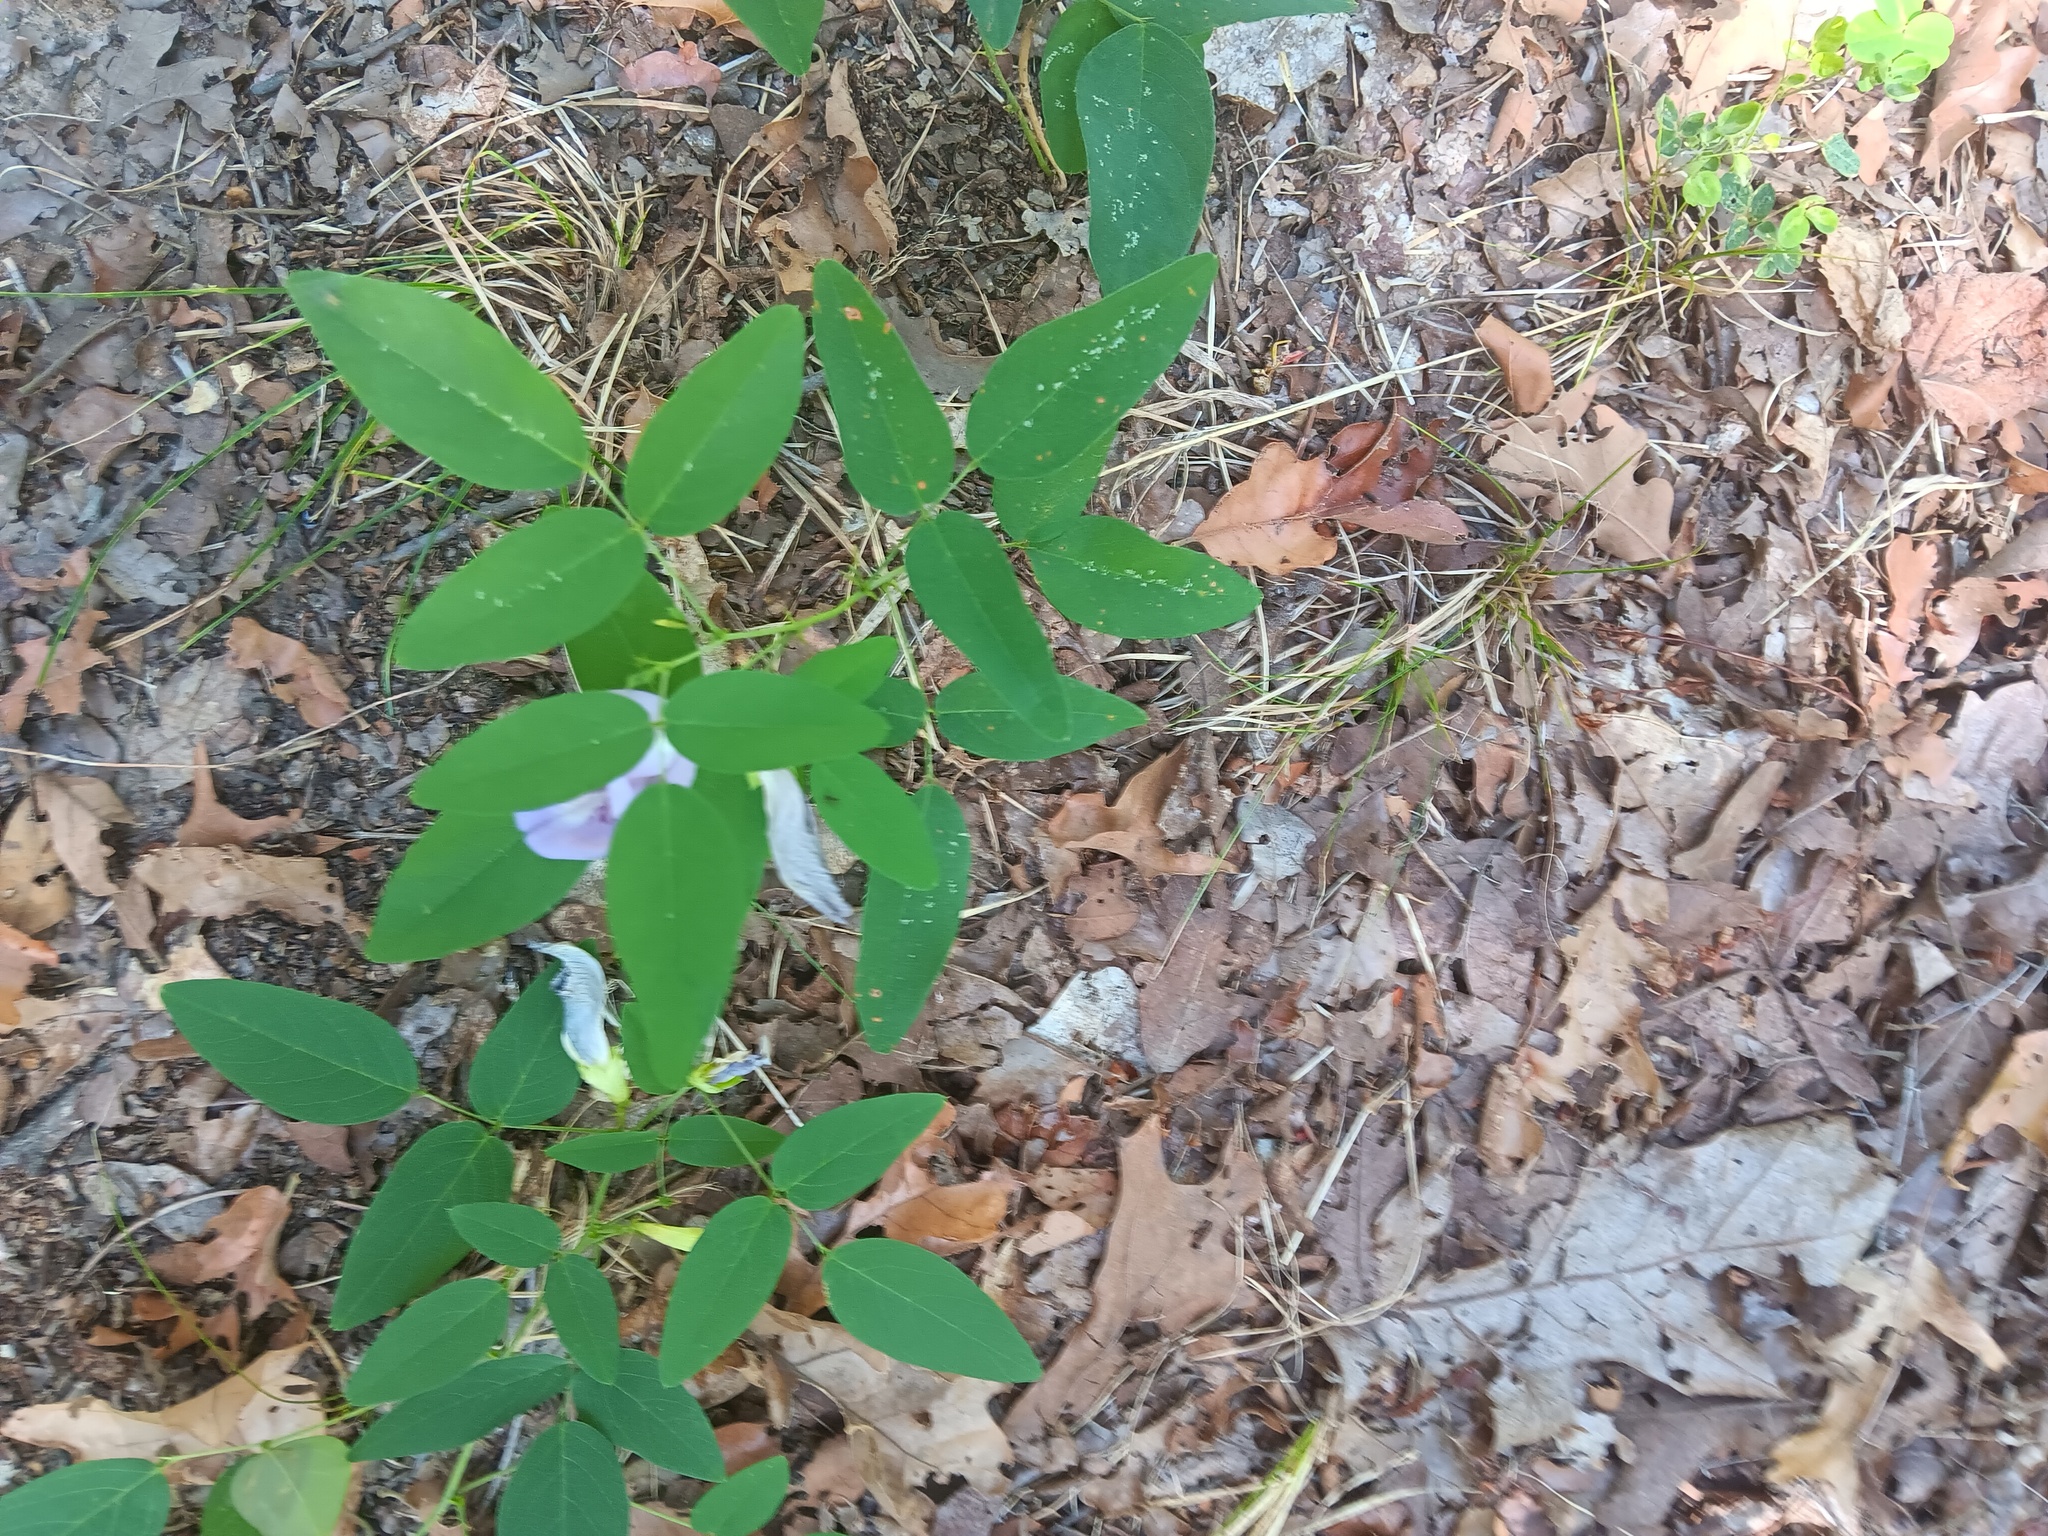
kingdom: Plantae
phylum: Tracheophyta
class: Magnoliopsida
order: Fabales
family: Fabaceae
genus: Clitoria
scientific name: Clitoria mariana
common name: Butterfly-pea
